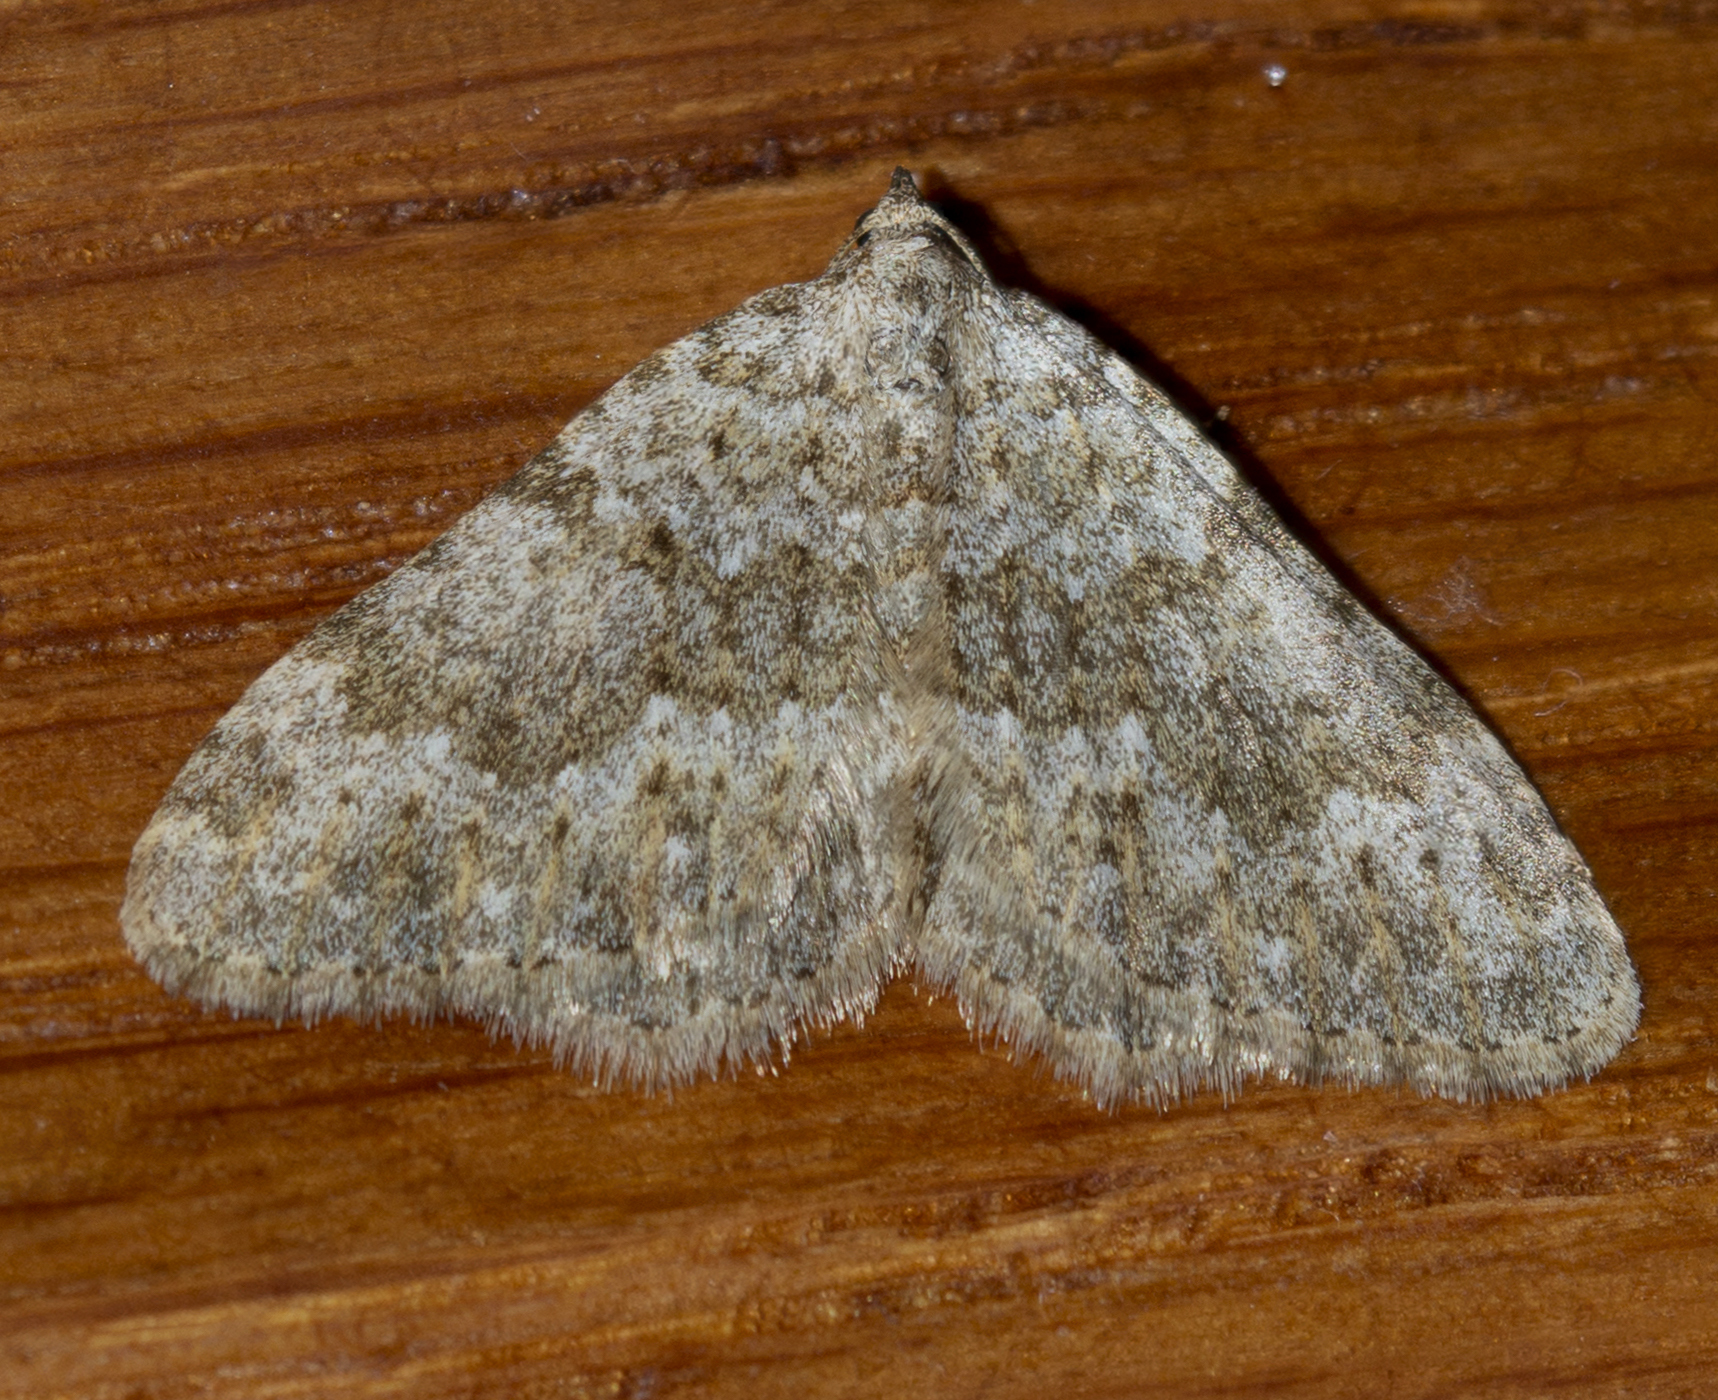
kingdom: Animalia
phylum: Arthropoda
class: Insecta
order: Lepidoptera
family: Geometridae
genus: Nebula
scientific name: Nebula salicata
